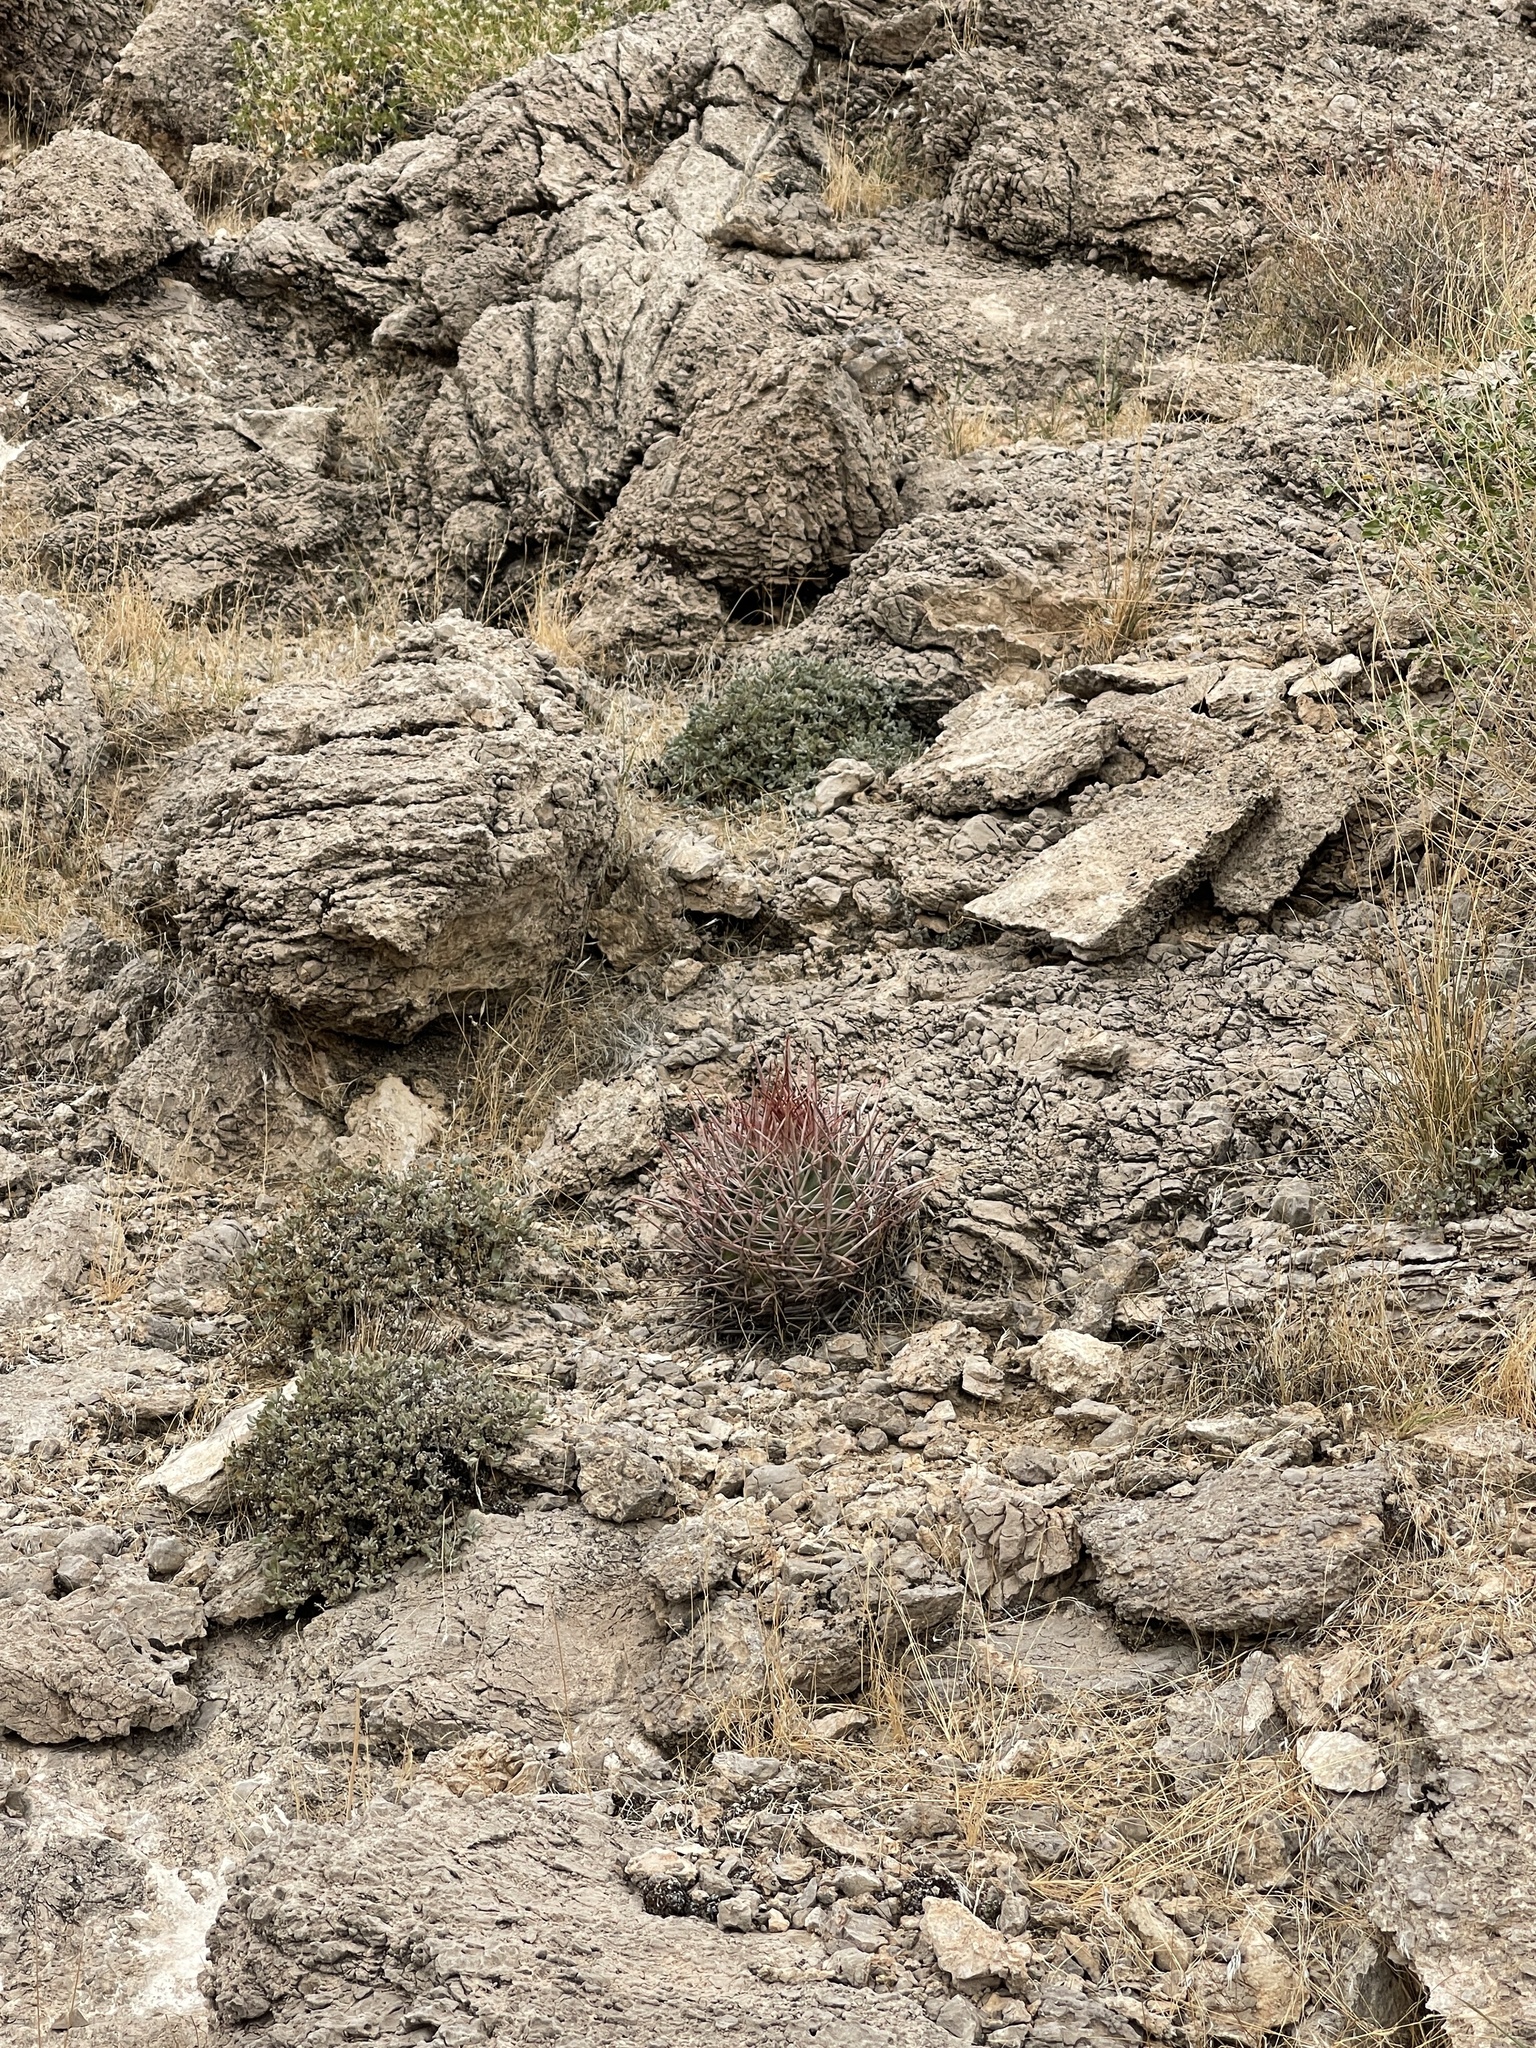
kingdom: Plantae
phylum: Tracheophyta
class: Magnoliopsida
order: Caryophyllales
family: Cactaceae
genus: Echinocactus
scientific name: Echinocactus polycephalus
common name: Cottontop cactus
